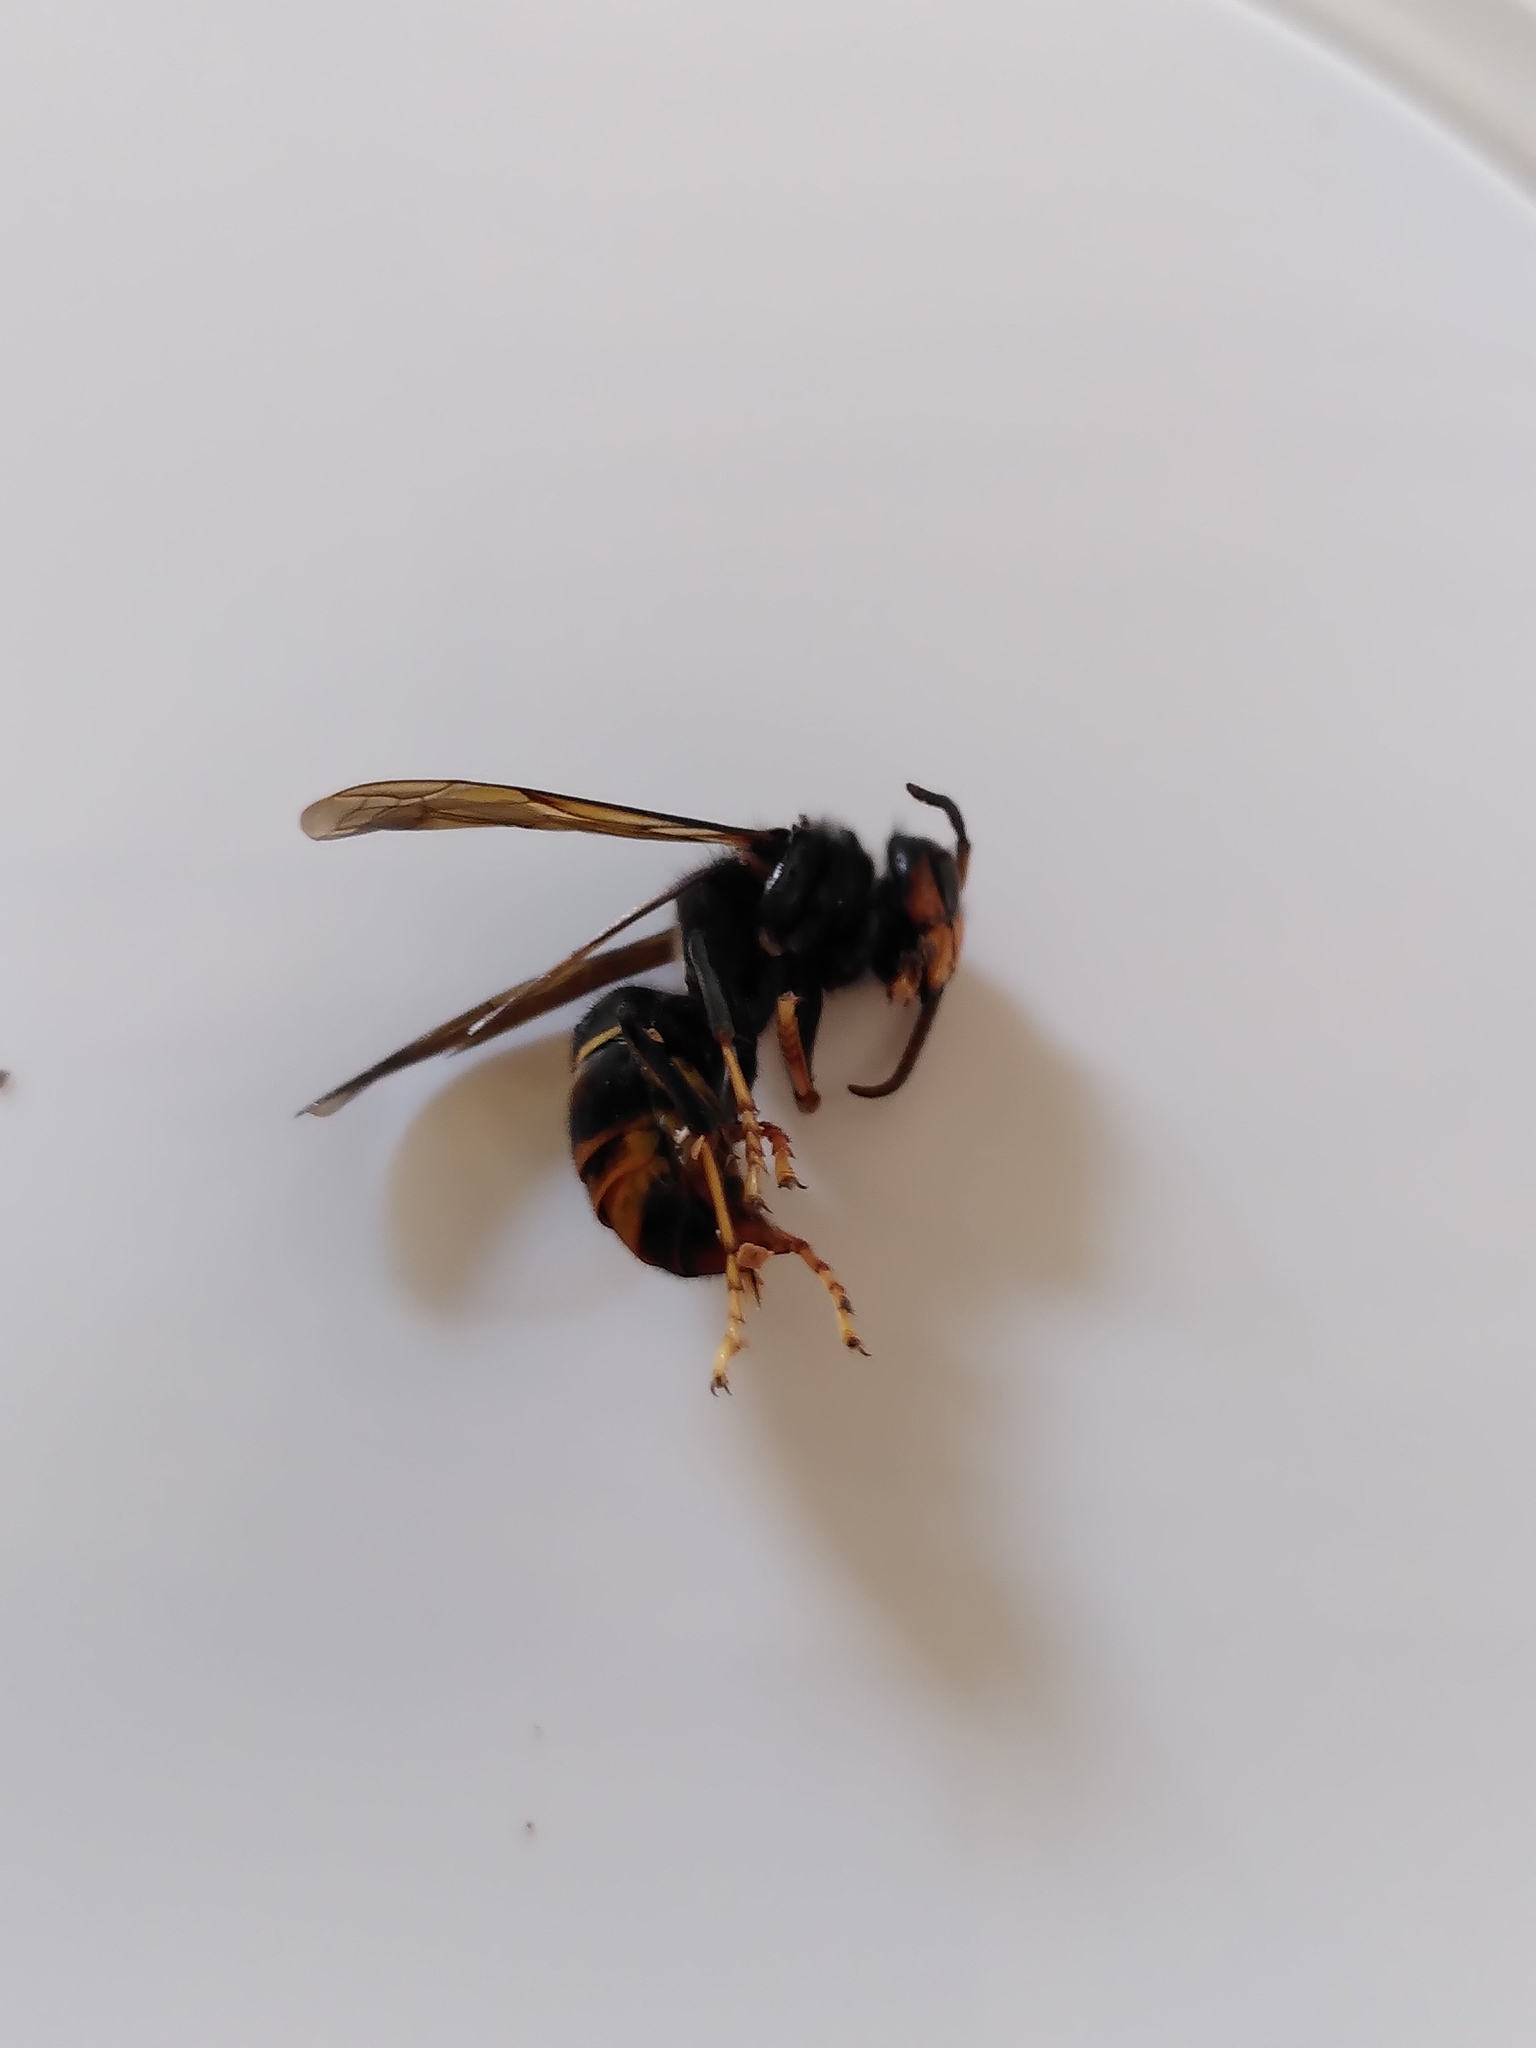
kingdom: Animalia
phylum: Arthropoda
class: Insecta
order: Hymenoptera
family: Vespidae
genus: Vespa
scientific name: Vespa velutina
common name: Asian hornet
